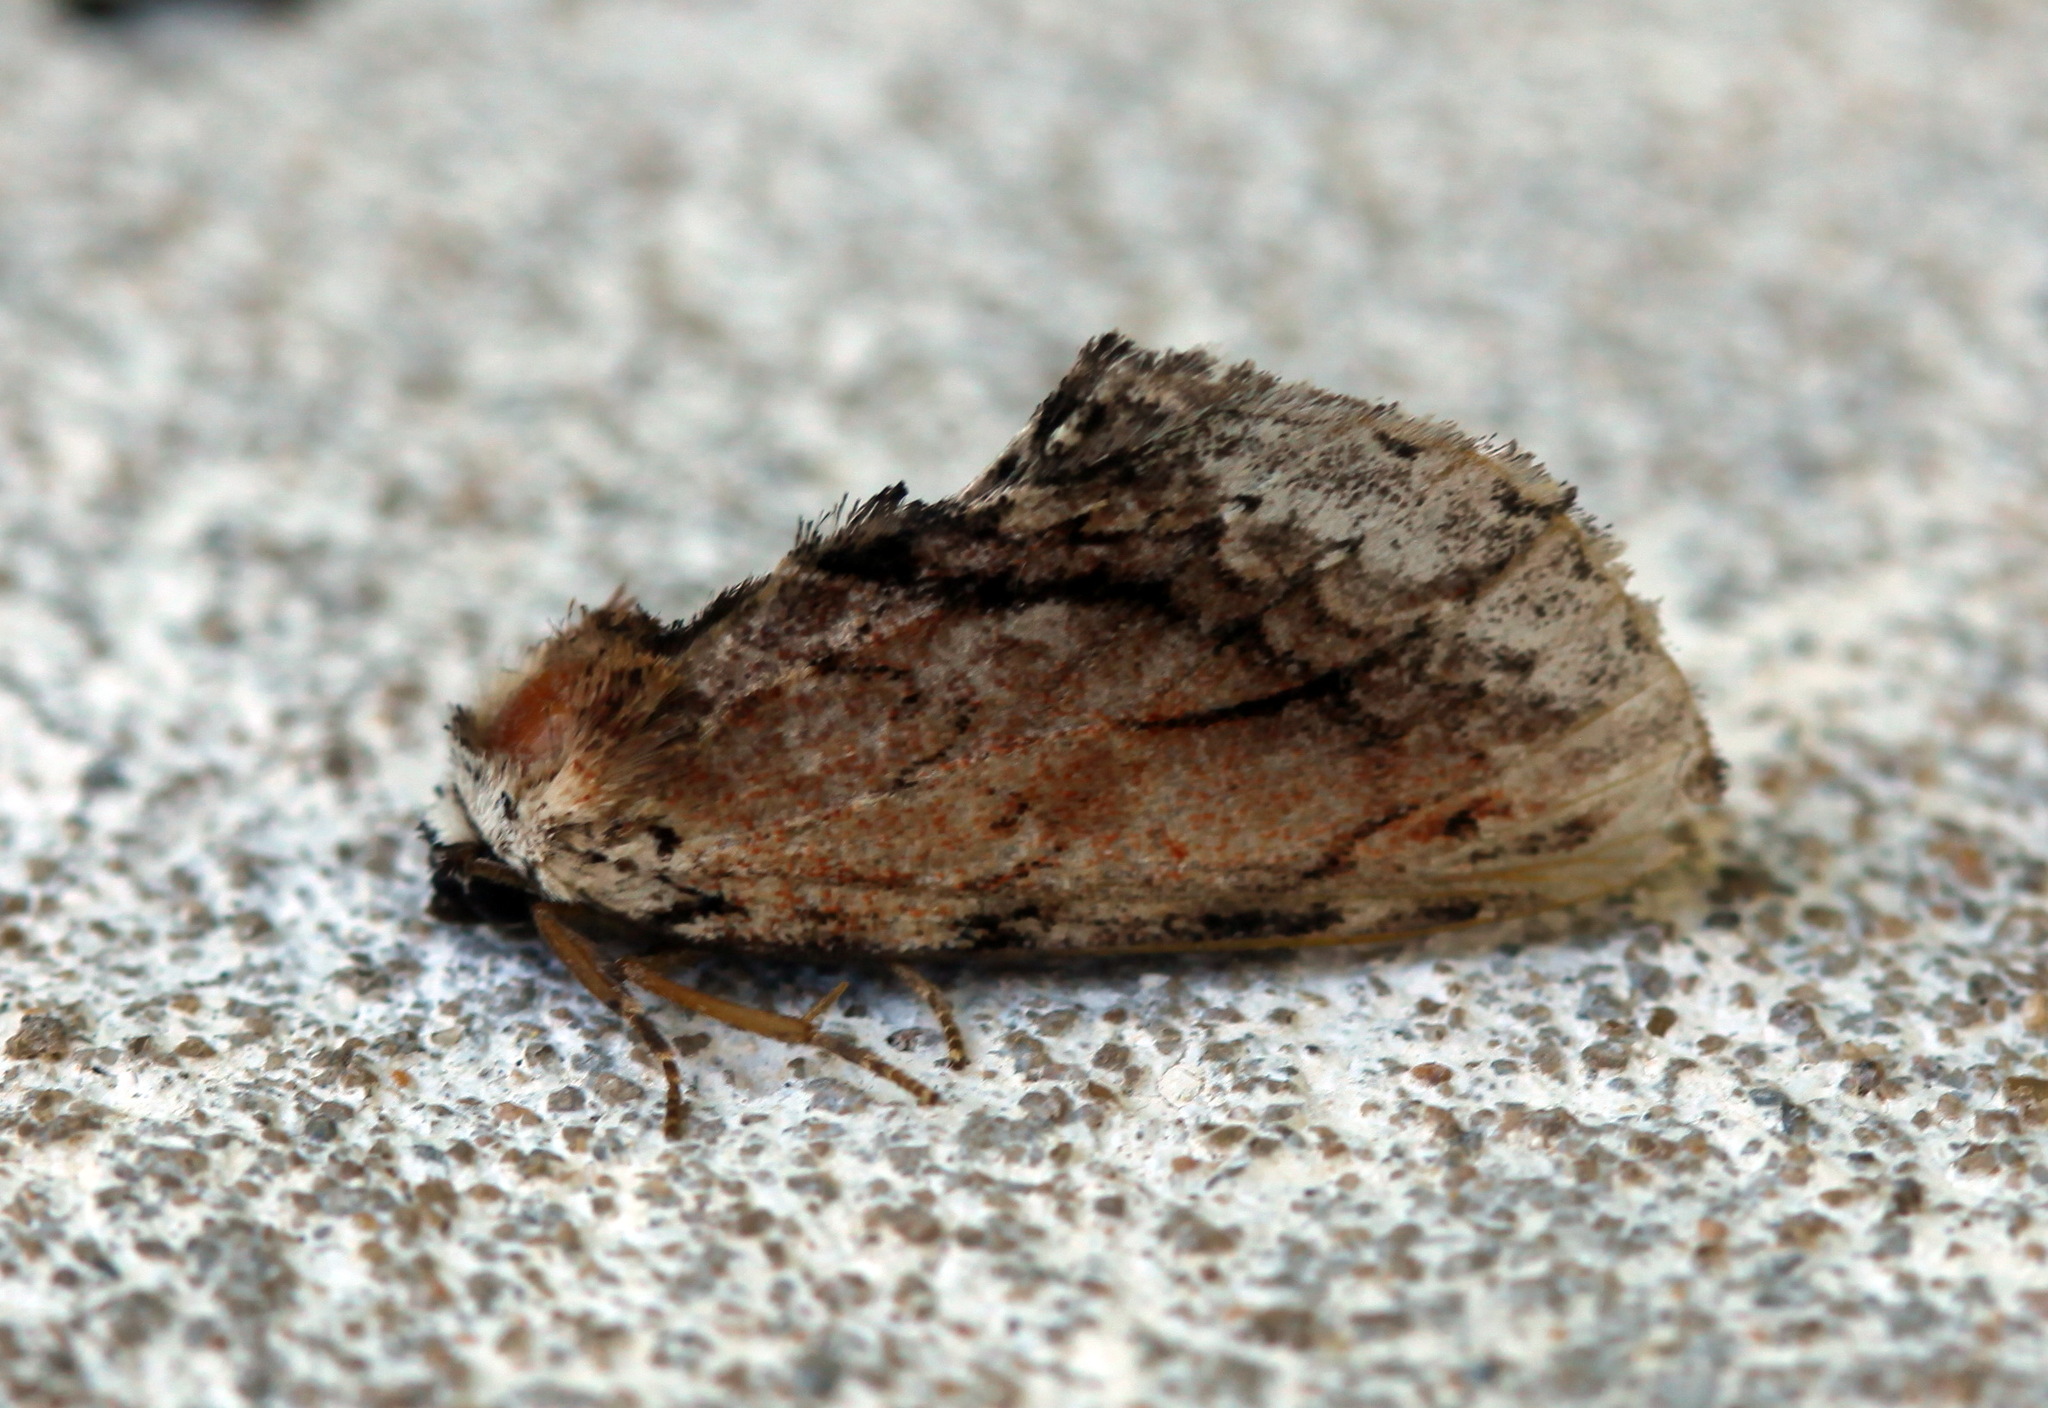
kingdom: Animalia
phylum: Arthropoda
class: Insecta
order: Lepidoptera
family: Notodontidae
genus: Ptilodon
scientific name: Ptilodon ladislai
